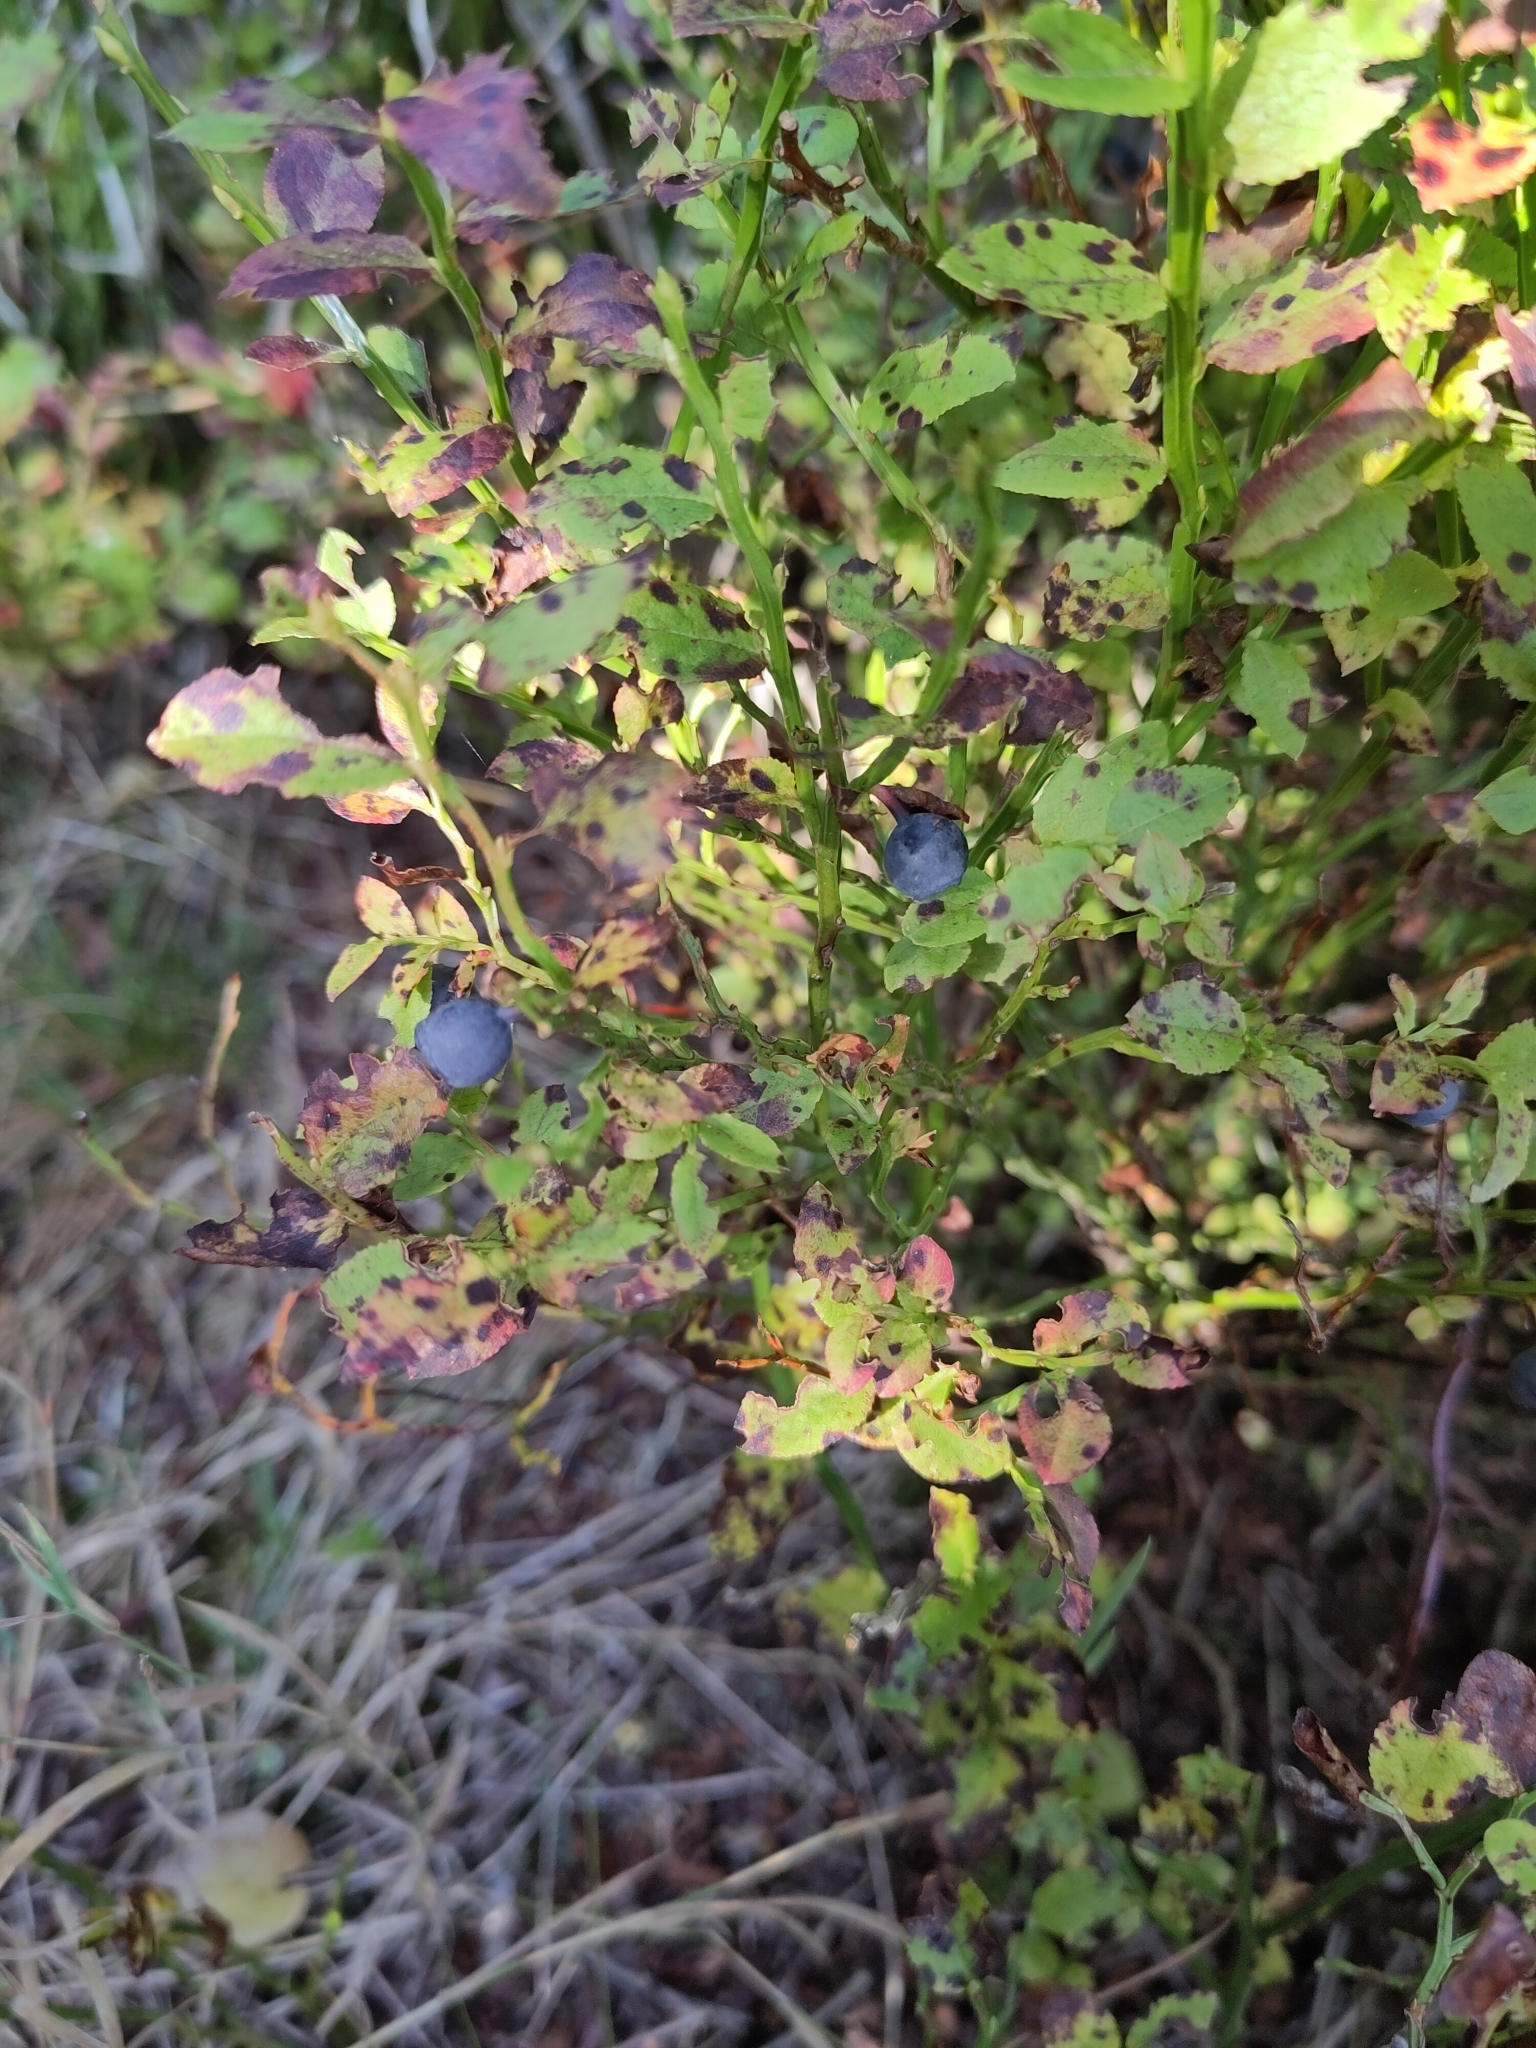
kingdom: Plantae
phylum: Tracheophyta
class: Magnoliopsida
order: Ericales
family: Ericaceae
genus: Vaccinium
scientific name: Vaccinium myrtillus
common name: Bilberry
